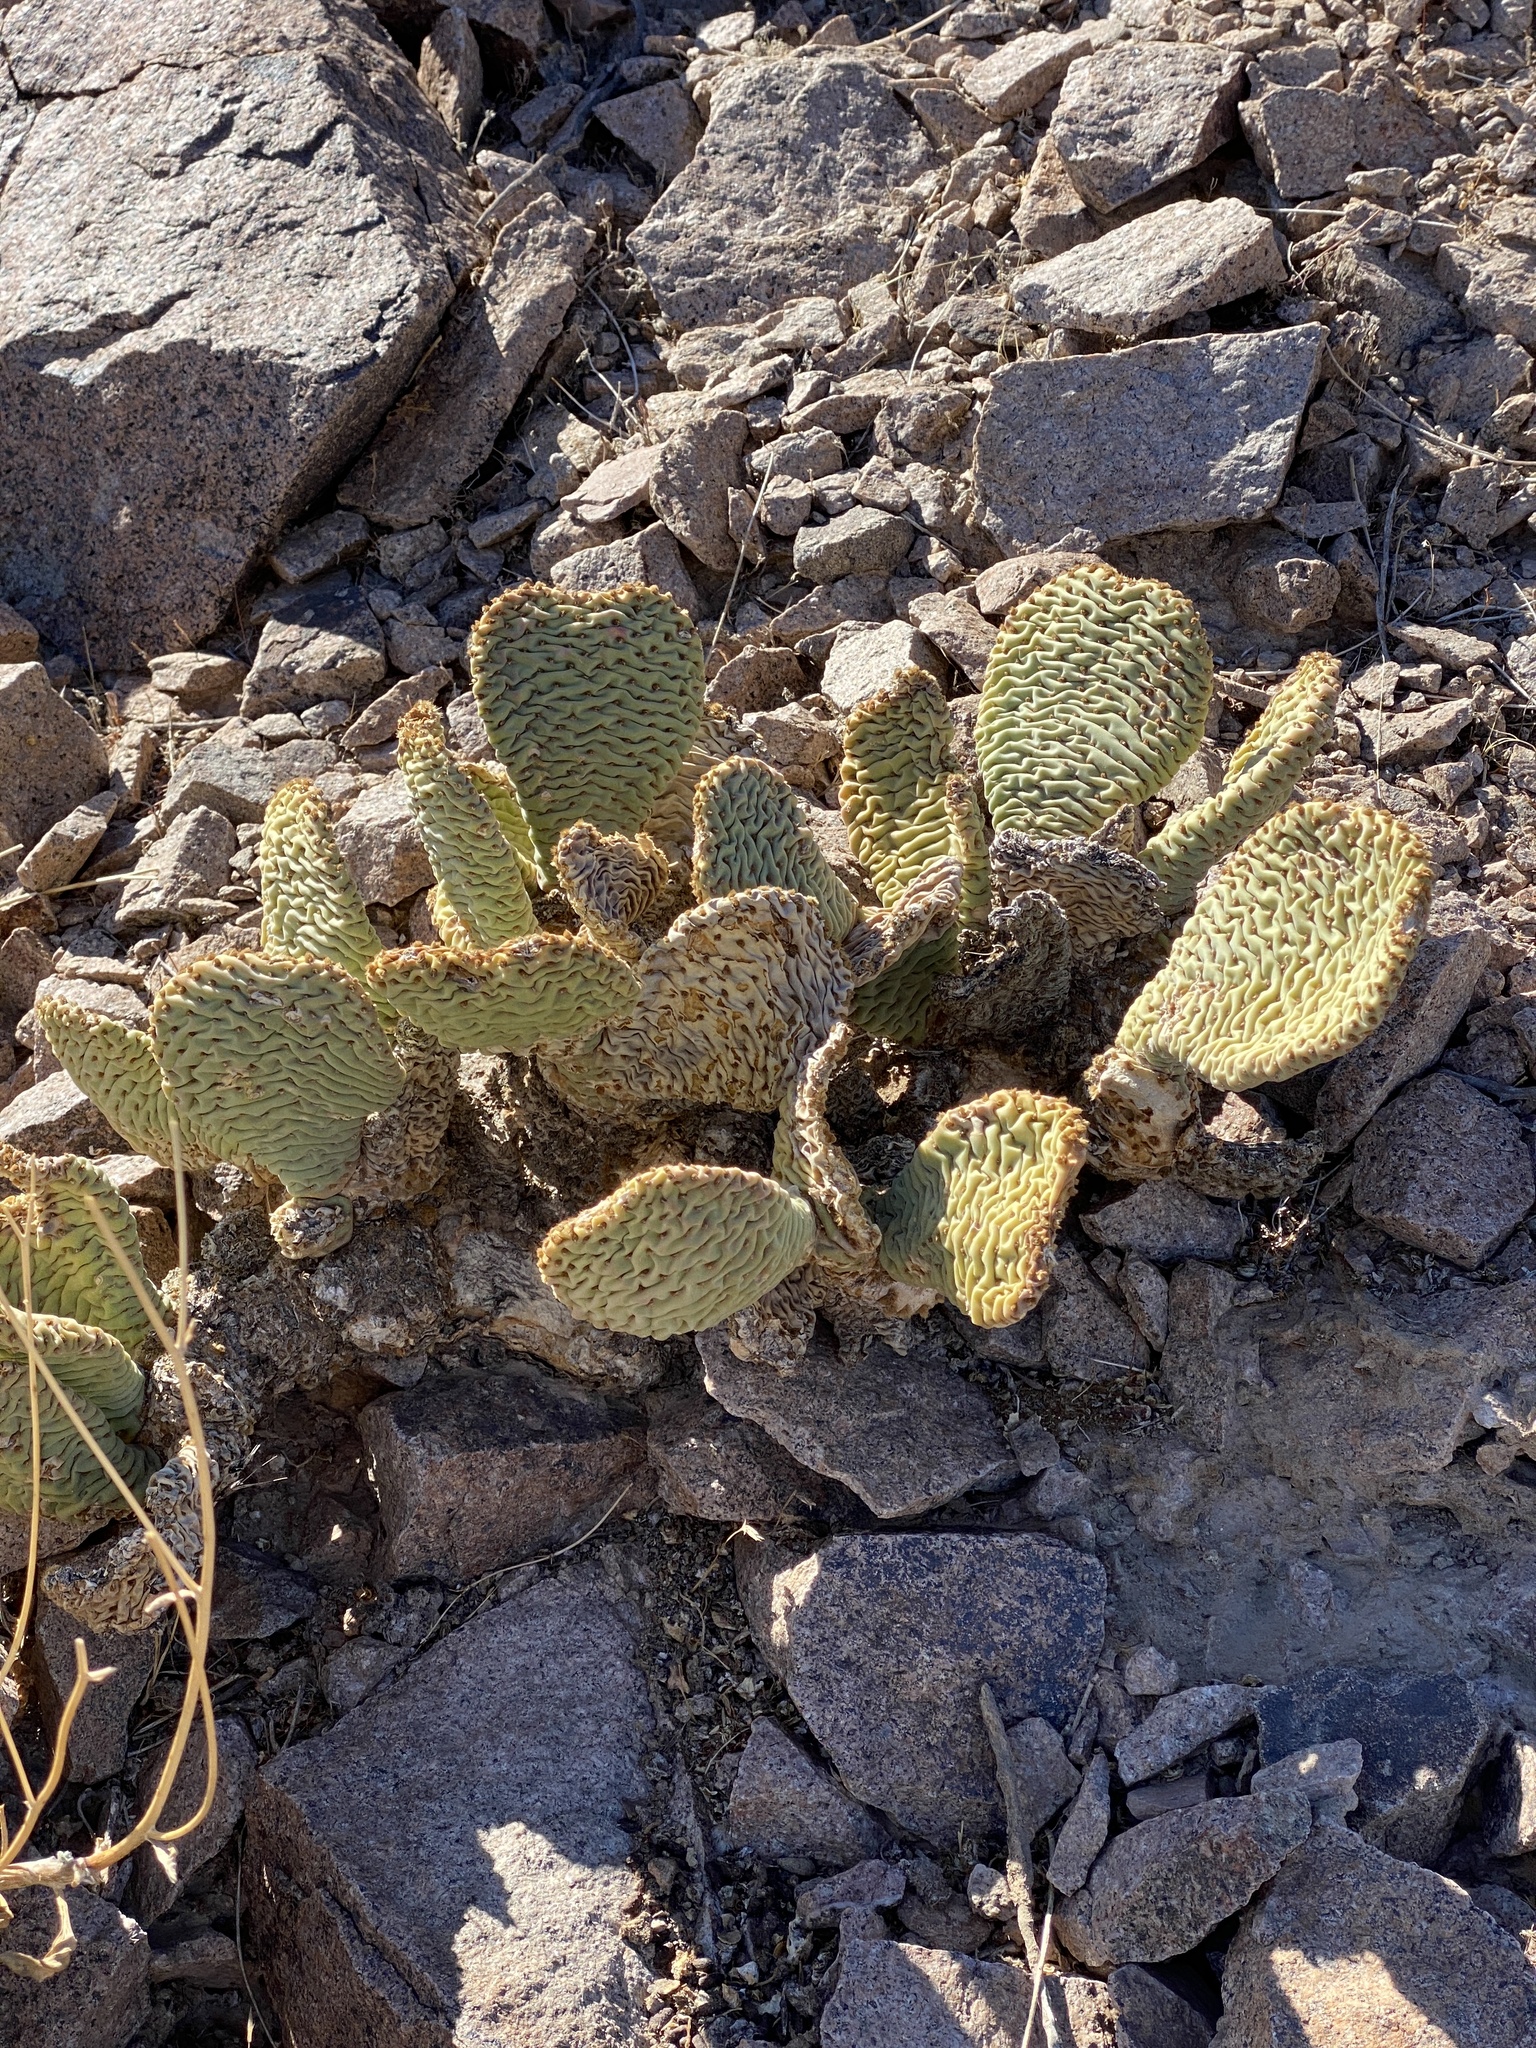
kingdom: Plantae
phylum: Tracheophyta
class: Magnoliopsida
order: Caryophyllales
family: Cactaceae
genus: Opuntia
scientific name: Opuntia basilaris
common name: Beavertail prickly-pear
